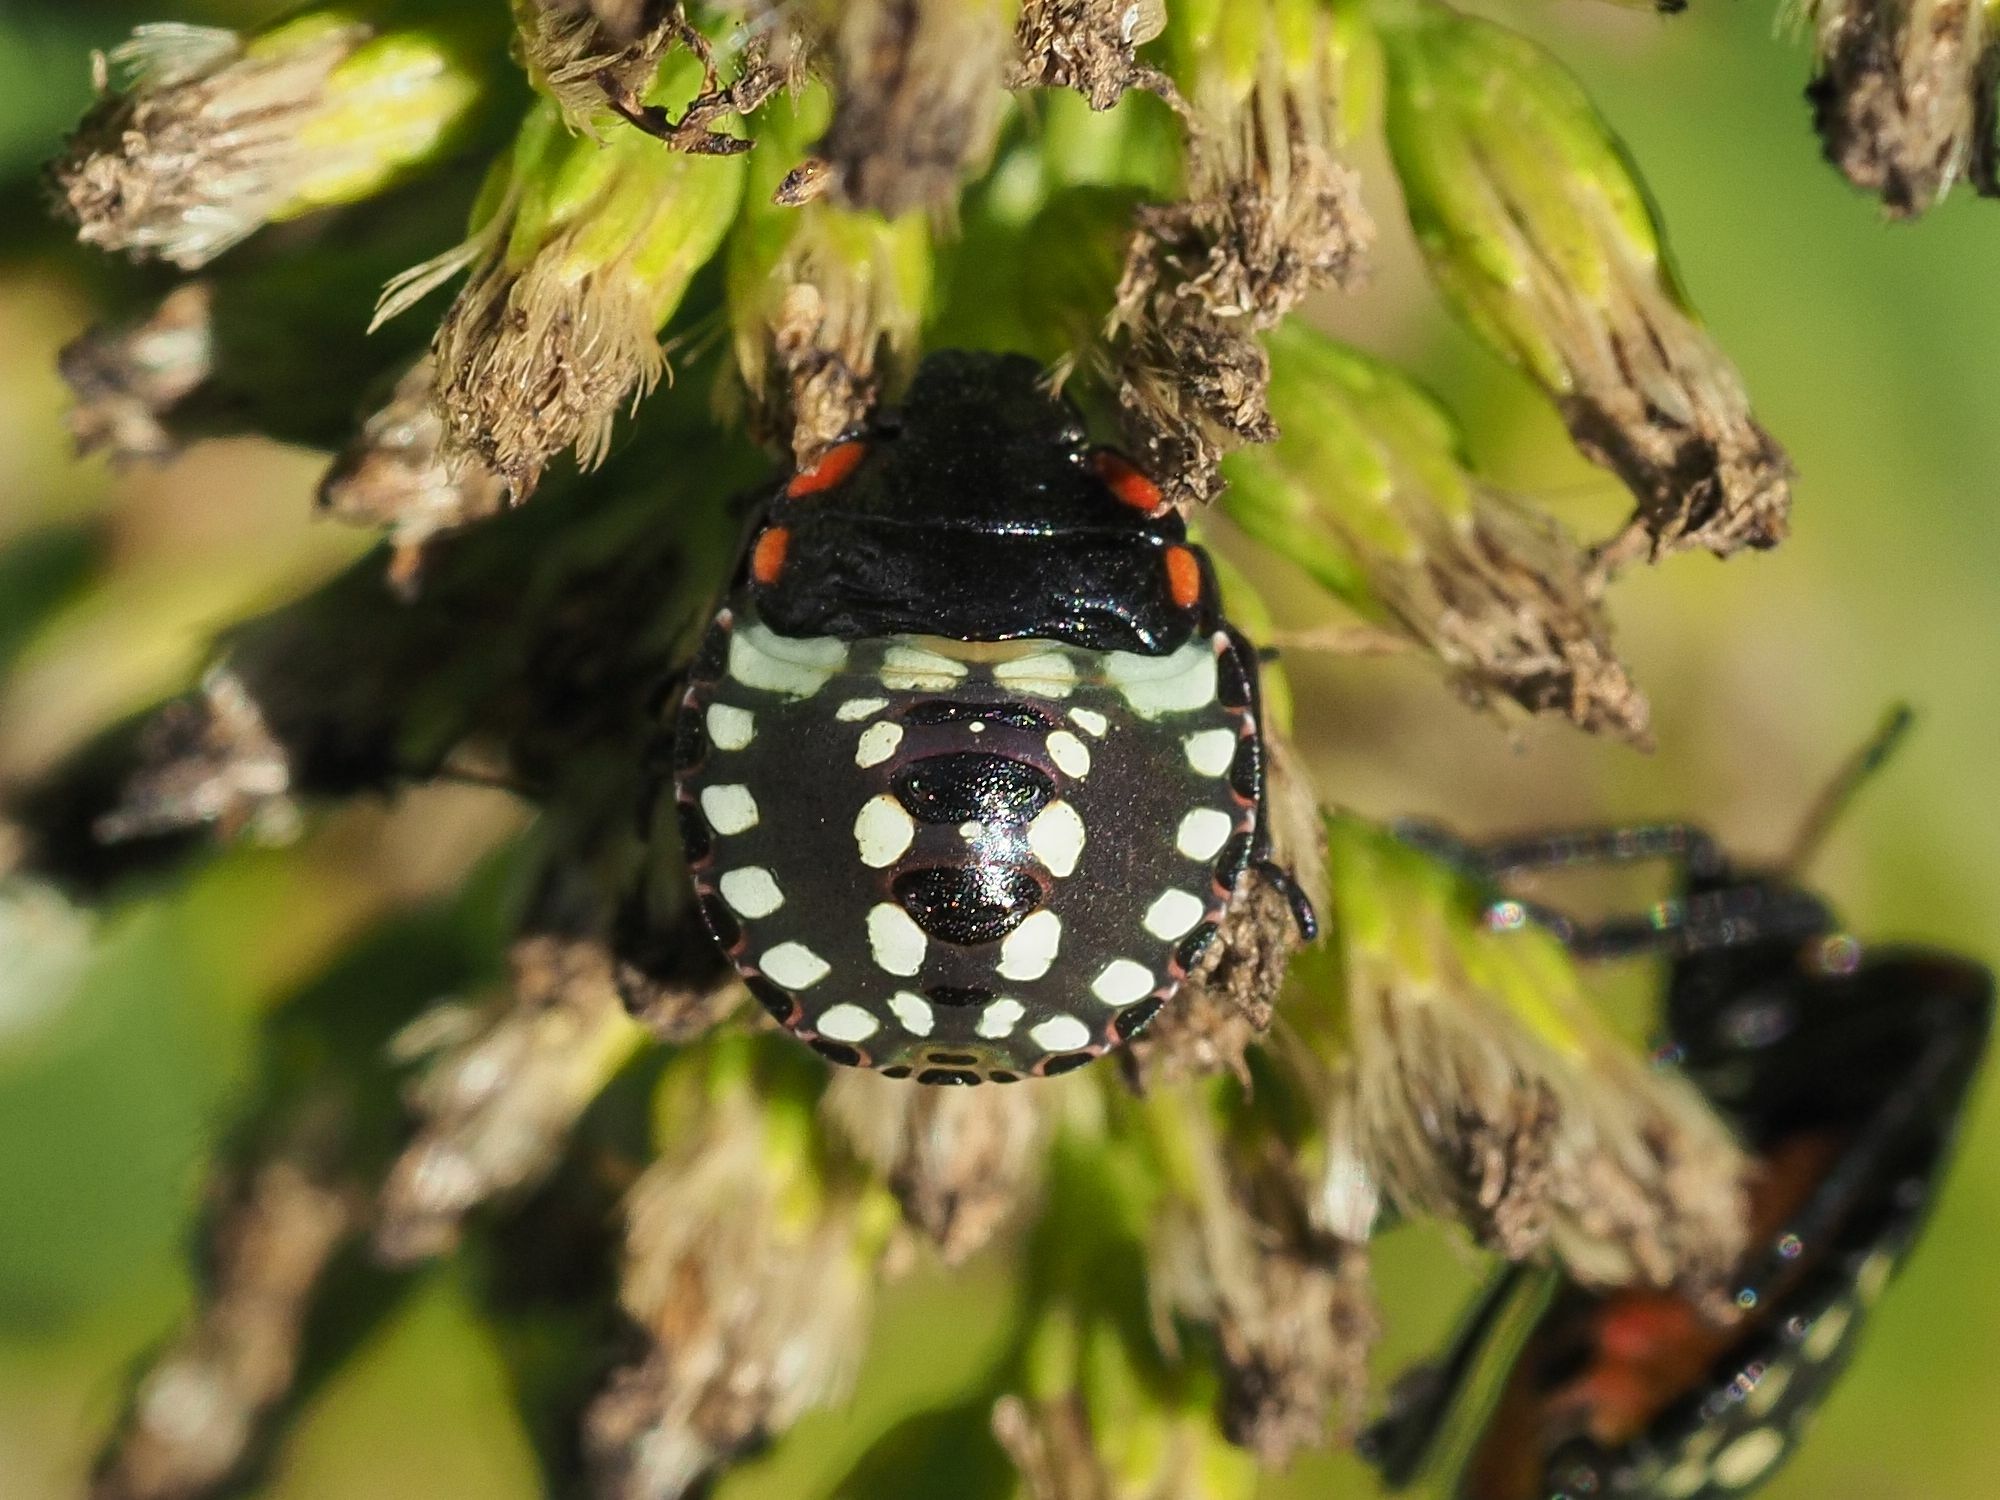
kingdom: Animalia
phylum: Arthropoda
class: Insecta
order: Hemiptera
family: Pentatomidae
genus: Nezara
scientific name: Nezara viridula
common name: Southern green stink bug
